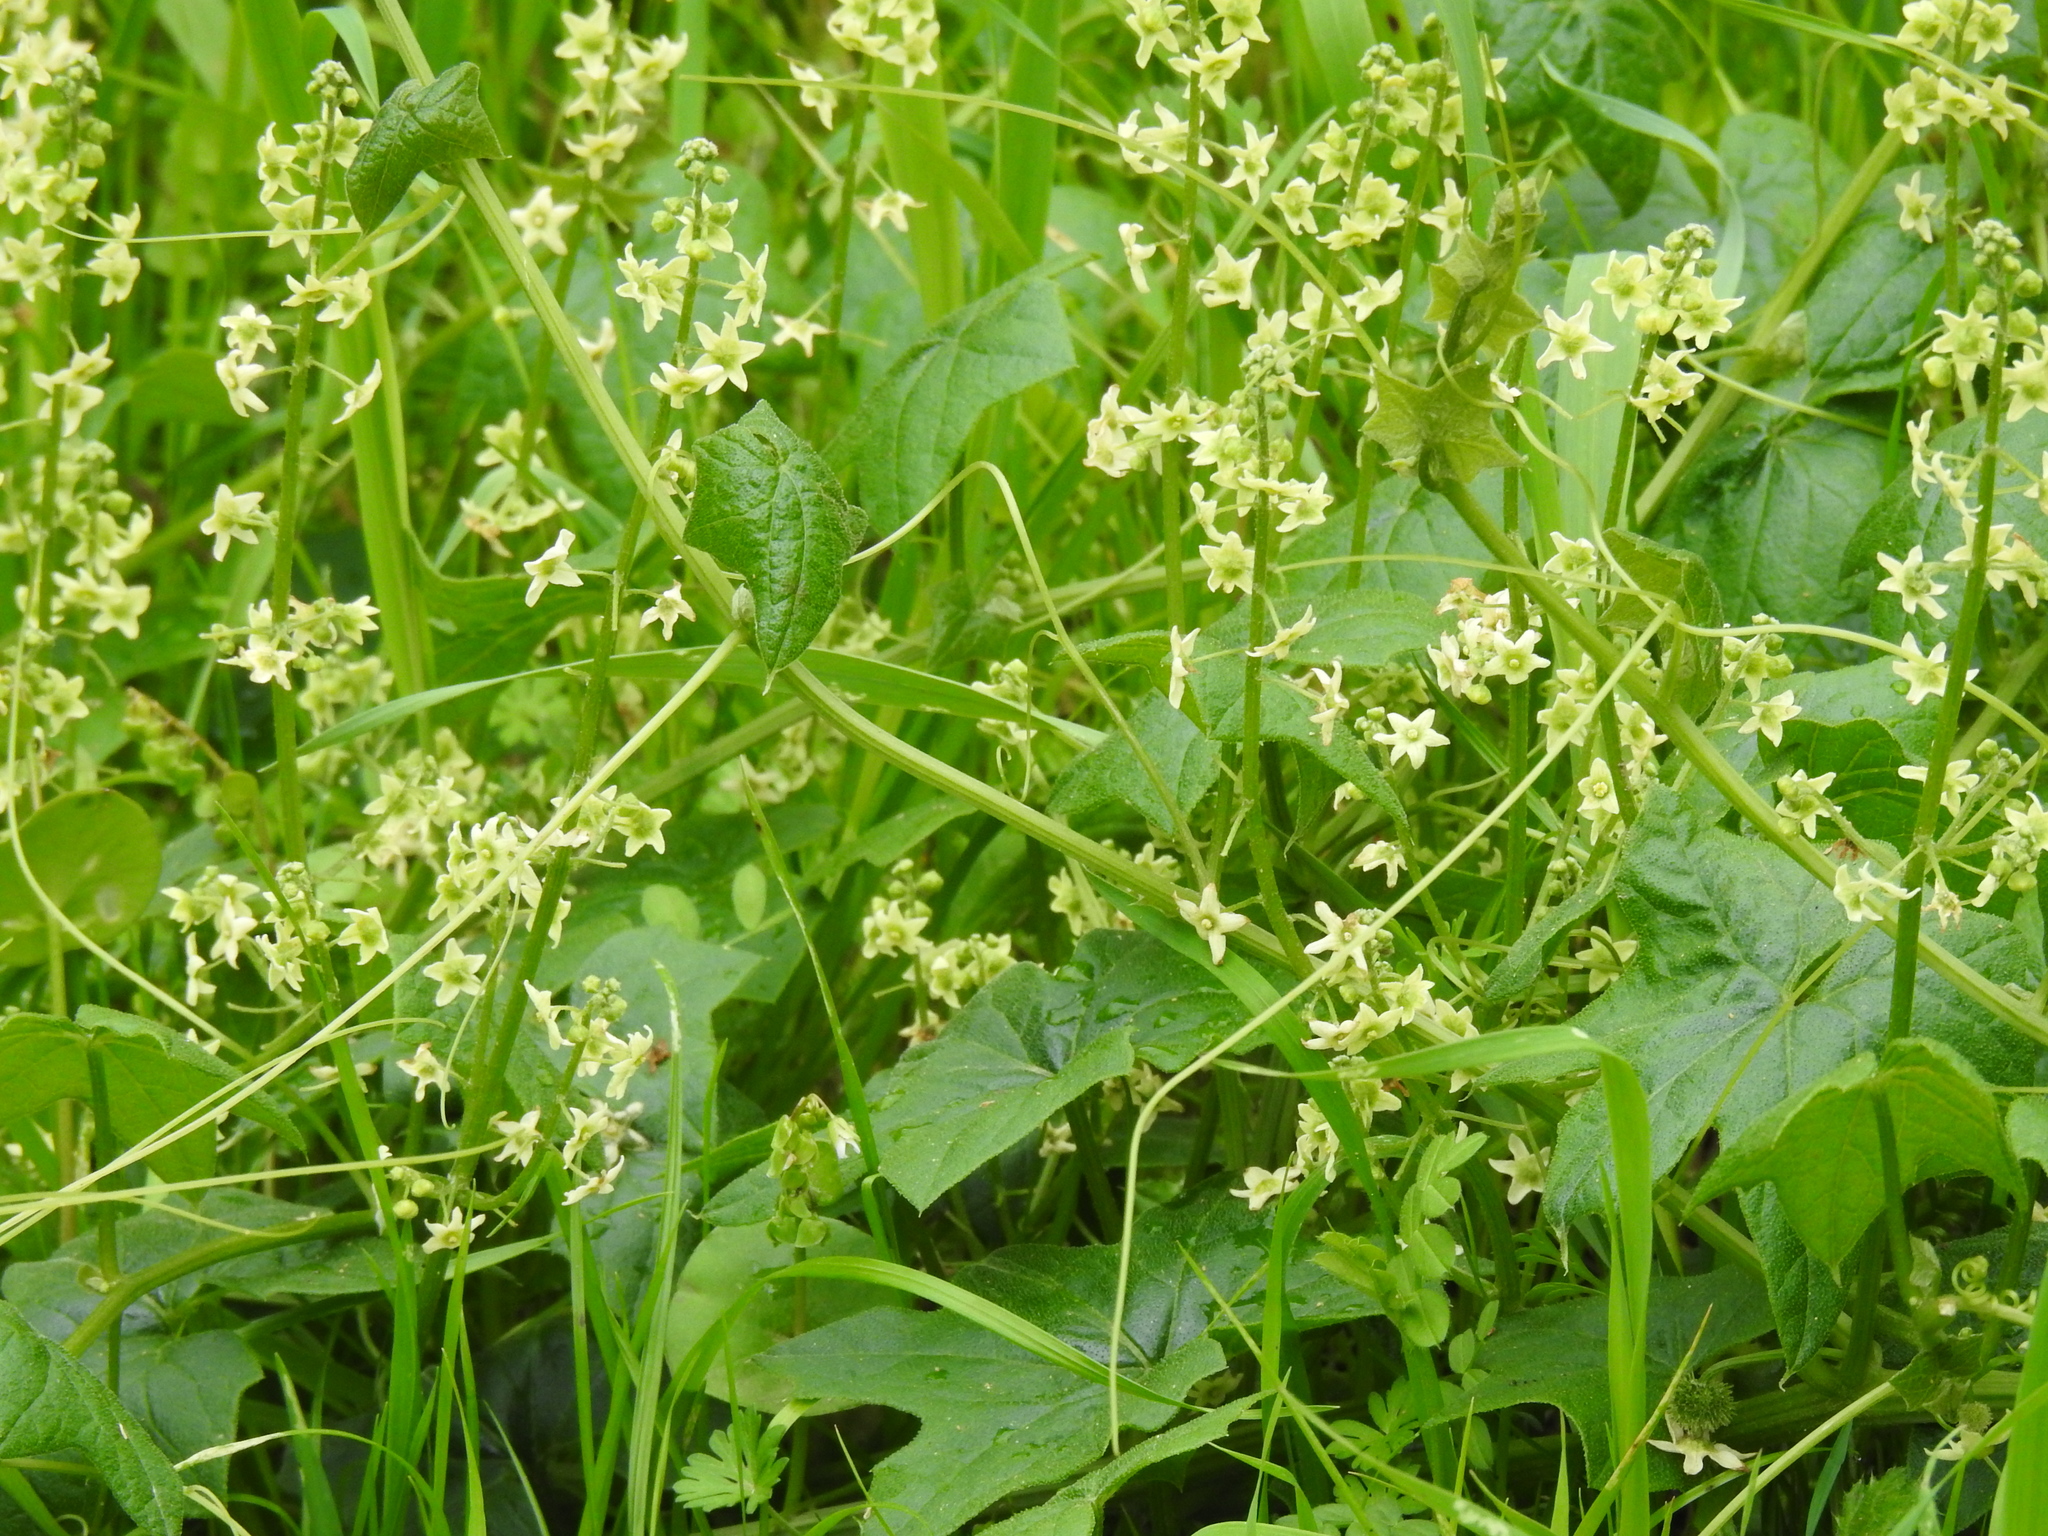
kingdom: Plantae
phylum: Tracheophyta
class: Magnoliopsida
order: Cucurbitales
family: Cucurbitaceae
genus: Marah
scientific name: Marah fabacea
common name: California manroot
